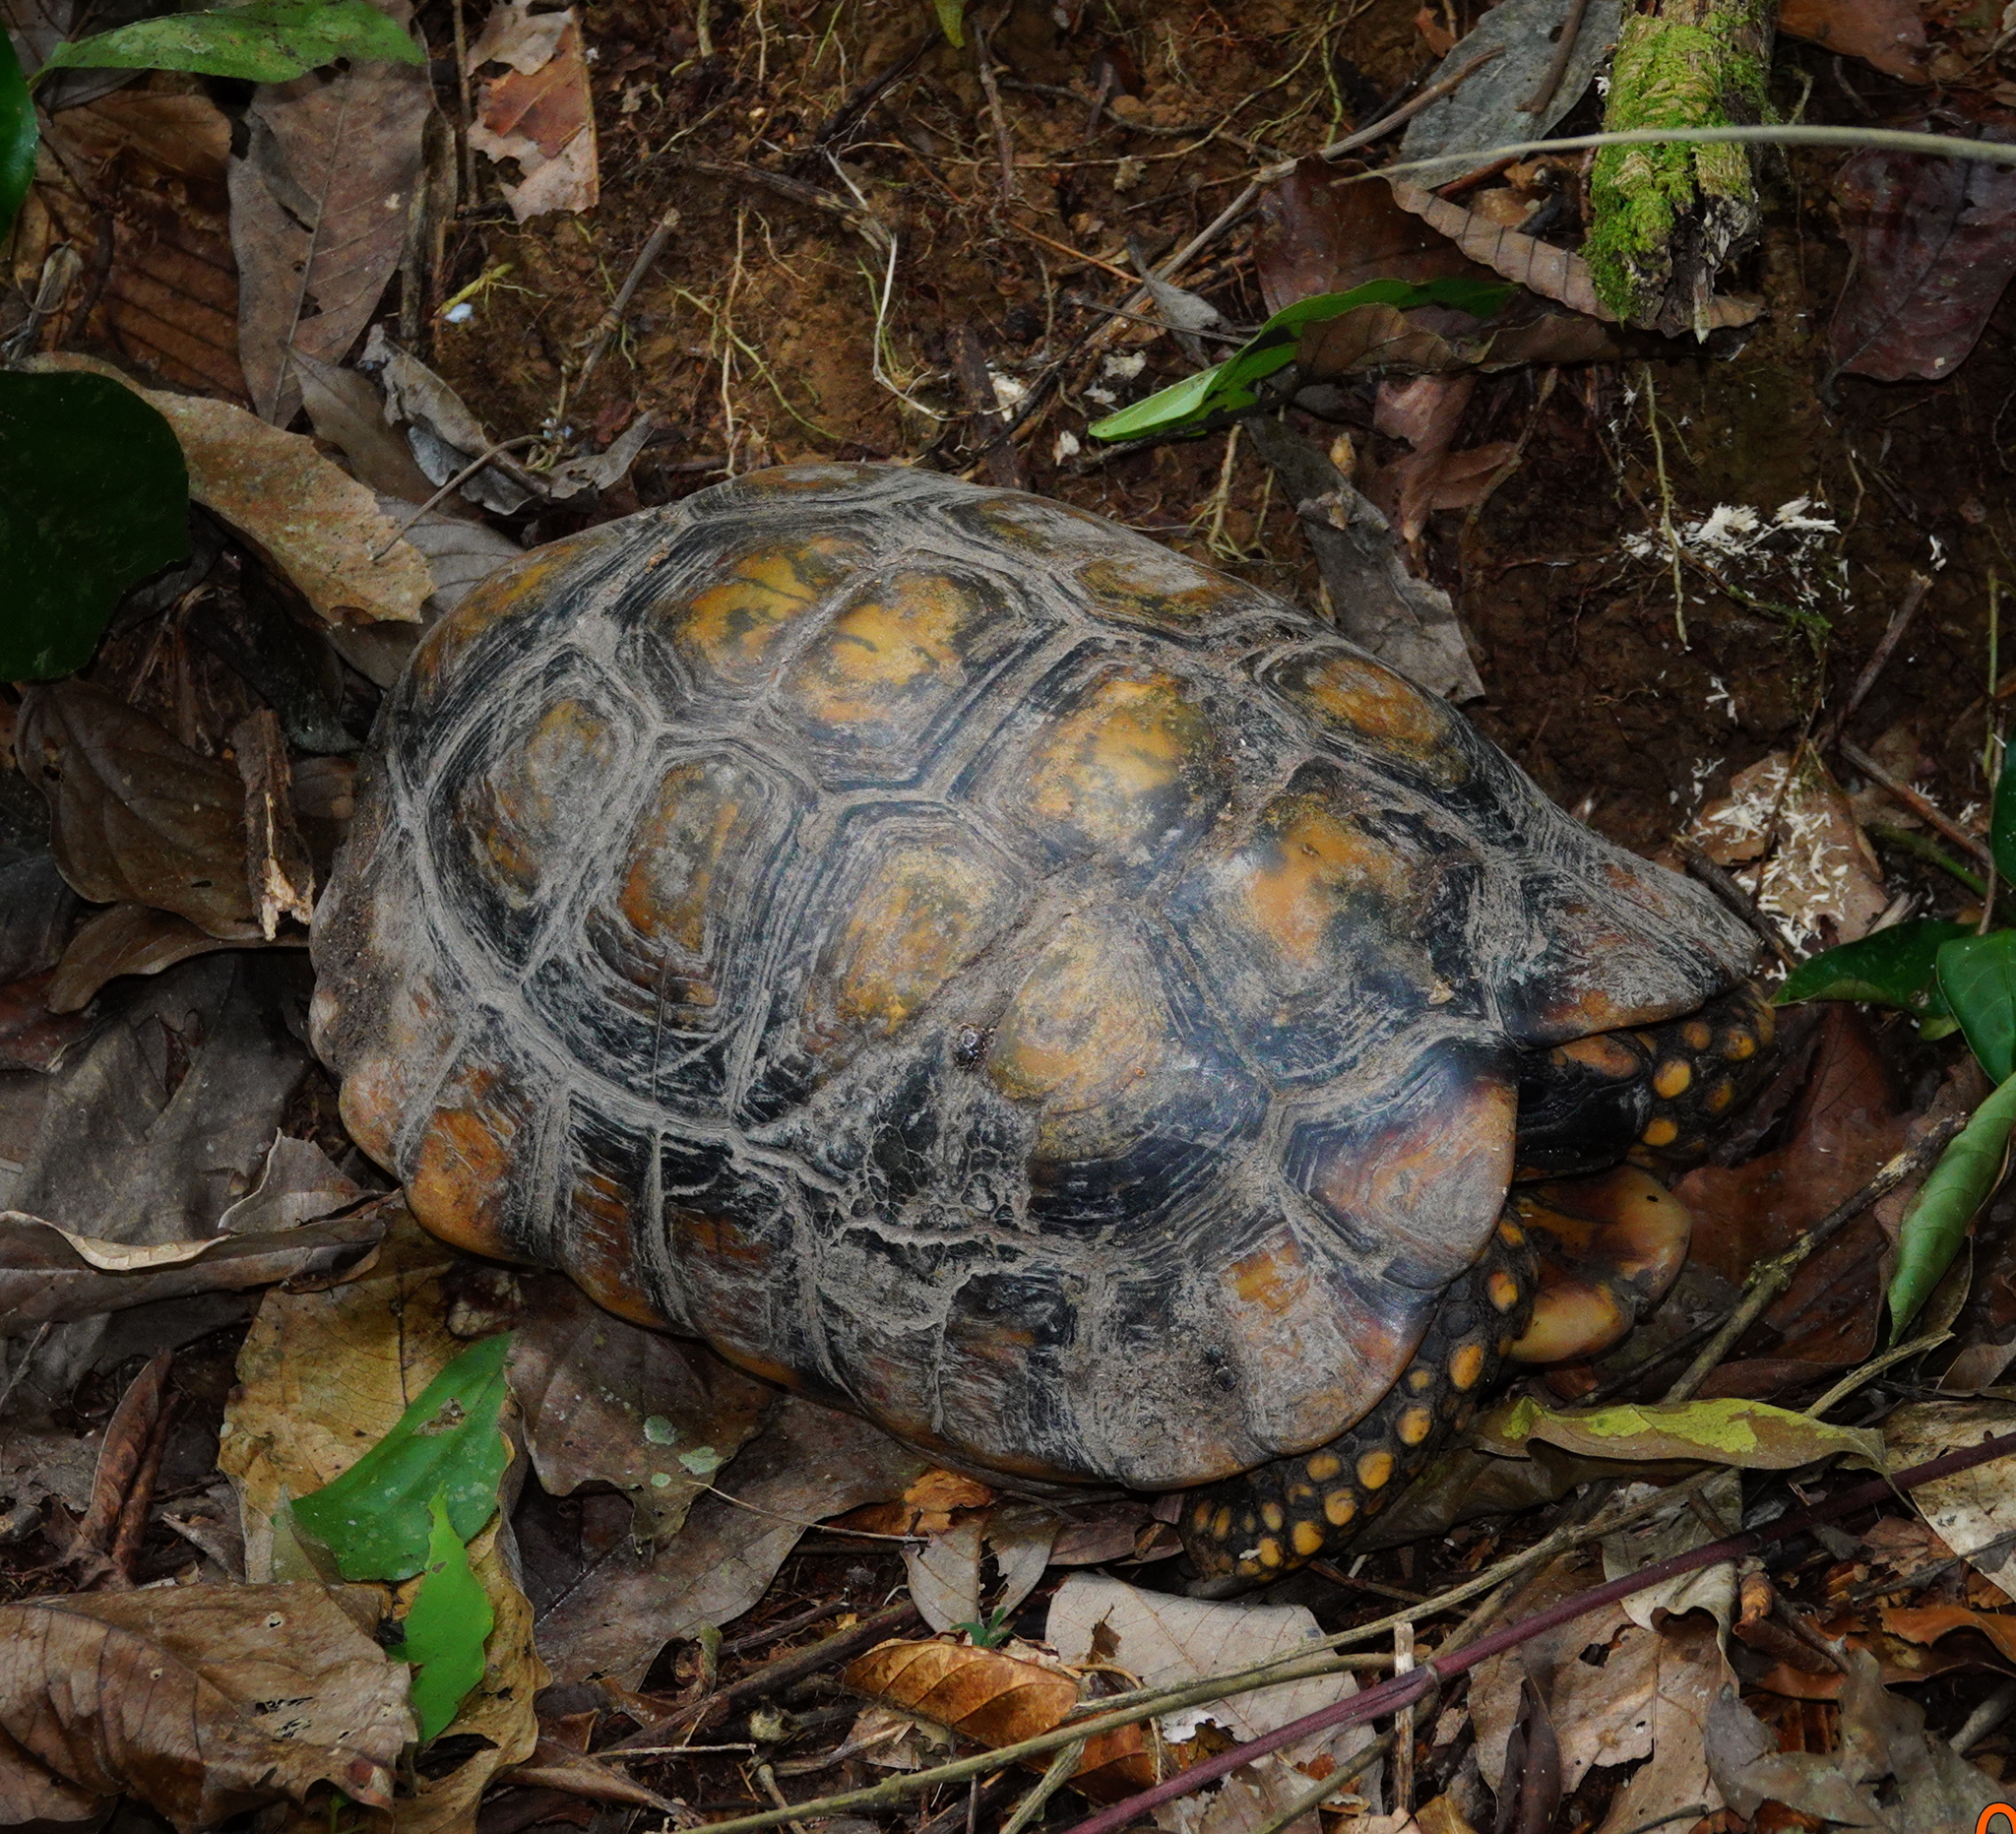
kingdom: Animalia
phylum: Chordata
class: Testudines
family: Testudinidae
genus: Chelonoidis
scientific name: Chelonoidis denticulatus
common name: Yellow-footed tortoise
